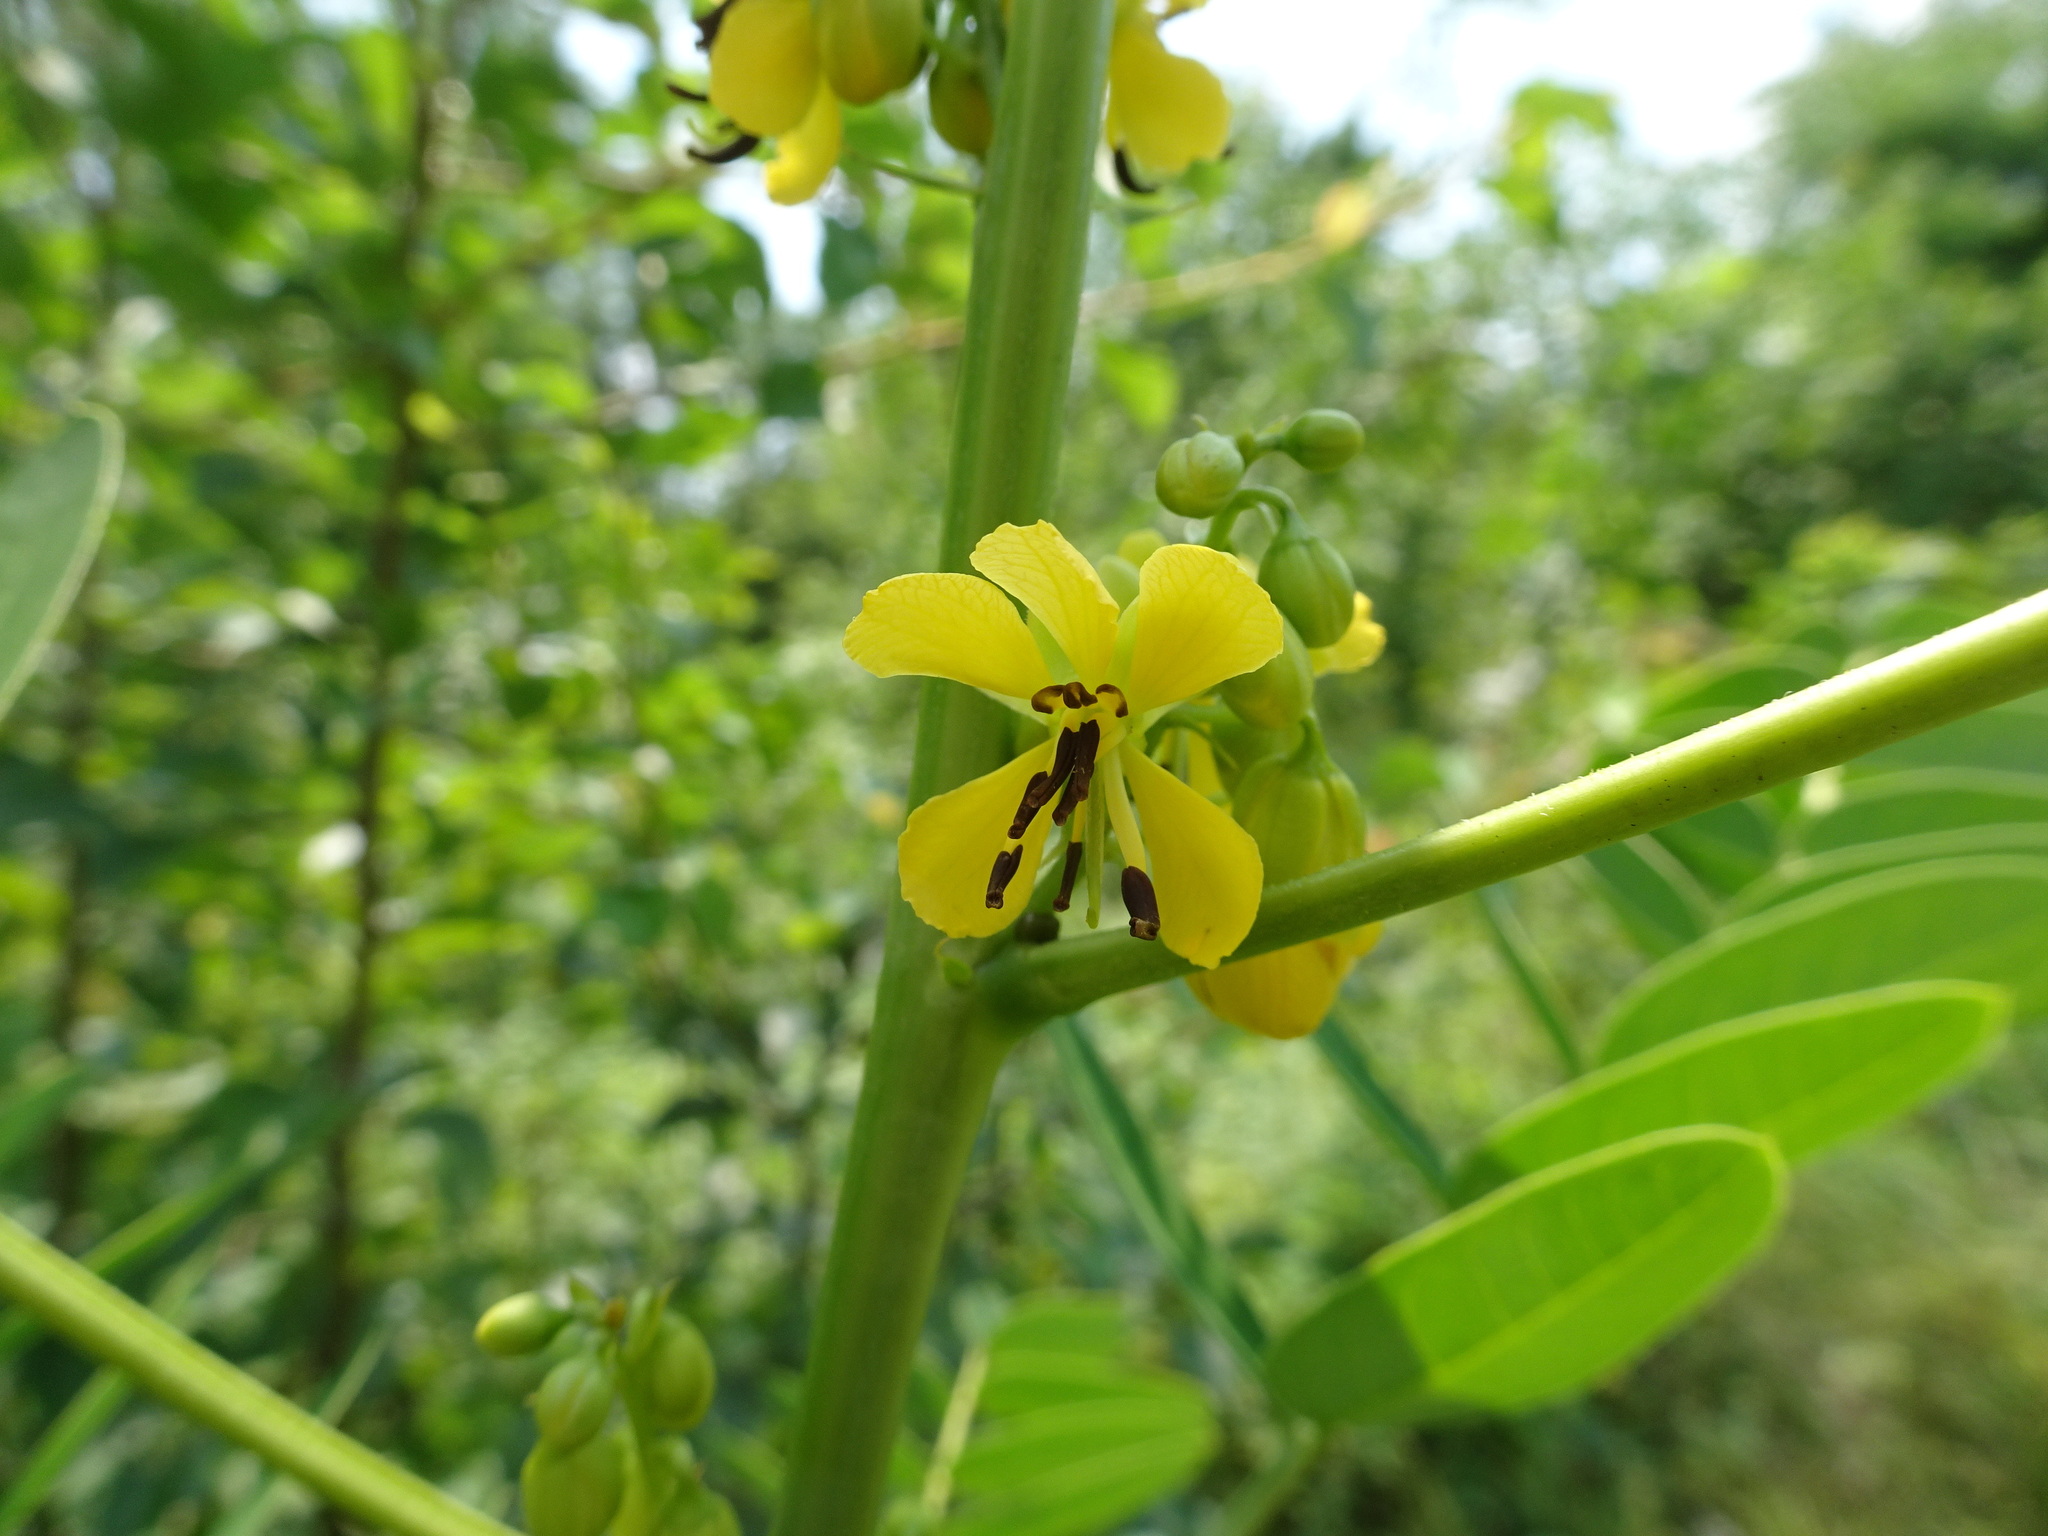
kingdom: Plantae
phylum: Tracheophyta
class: Magnoliopsida
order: Fabales
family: Fabaceae
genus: Senna
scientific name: Senna marilandica
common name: American senna
